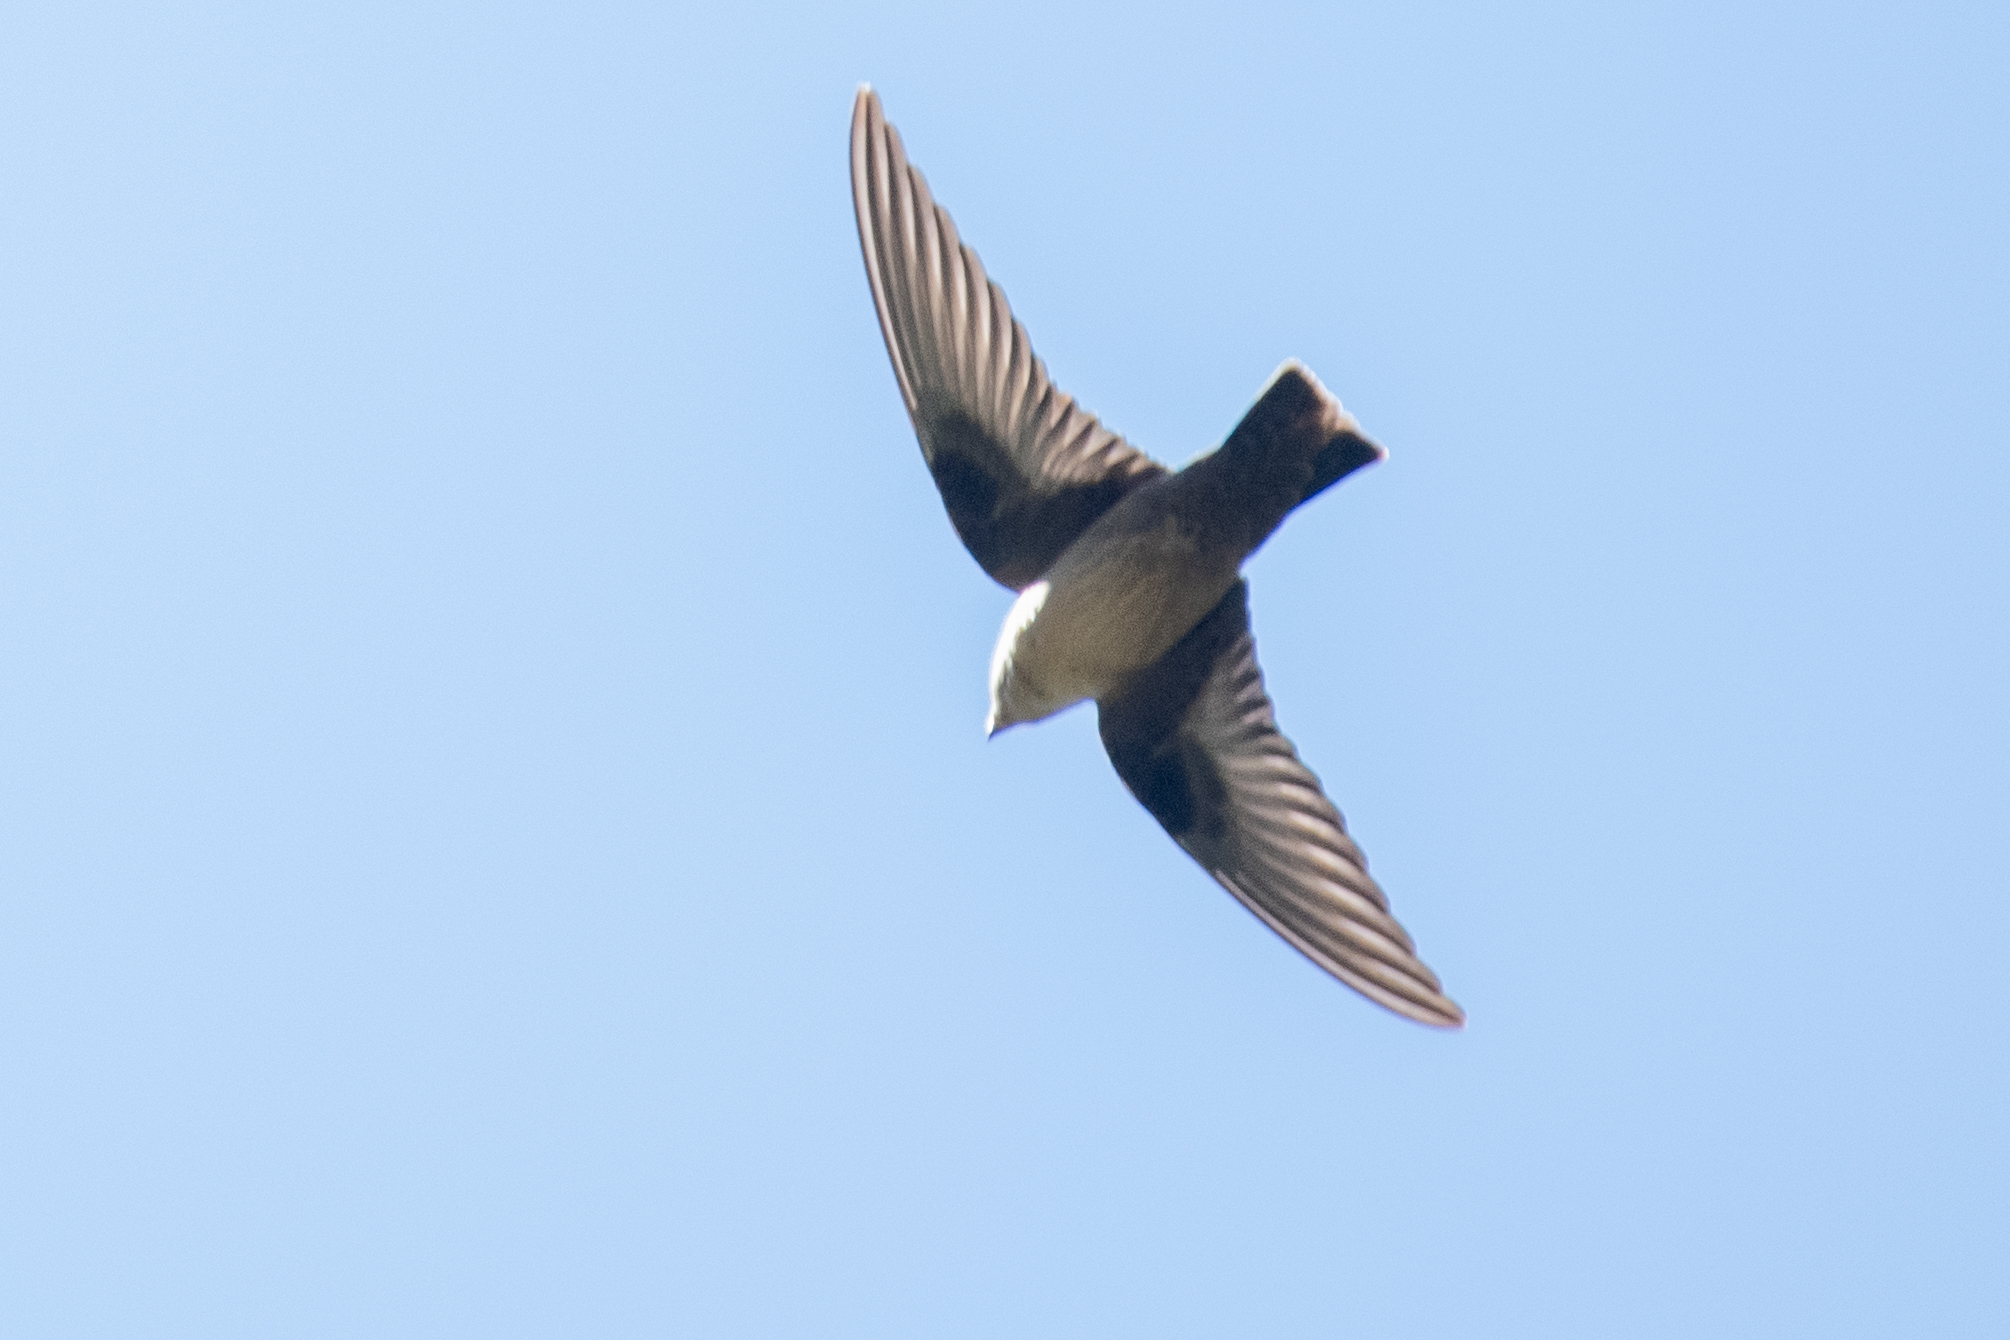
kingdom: Animalia
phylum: Chordata
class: Aves
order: Passeriformes
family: Hirundinidae
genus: Ptyonoprogne
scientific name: Ptyonoprogne rupestris
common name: Eurasian crag martin
